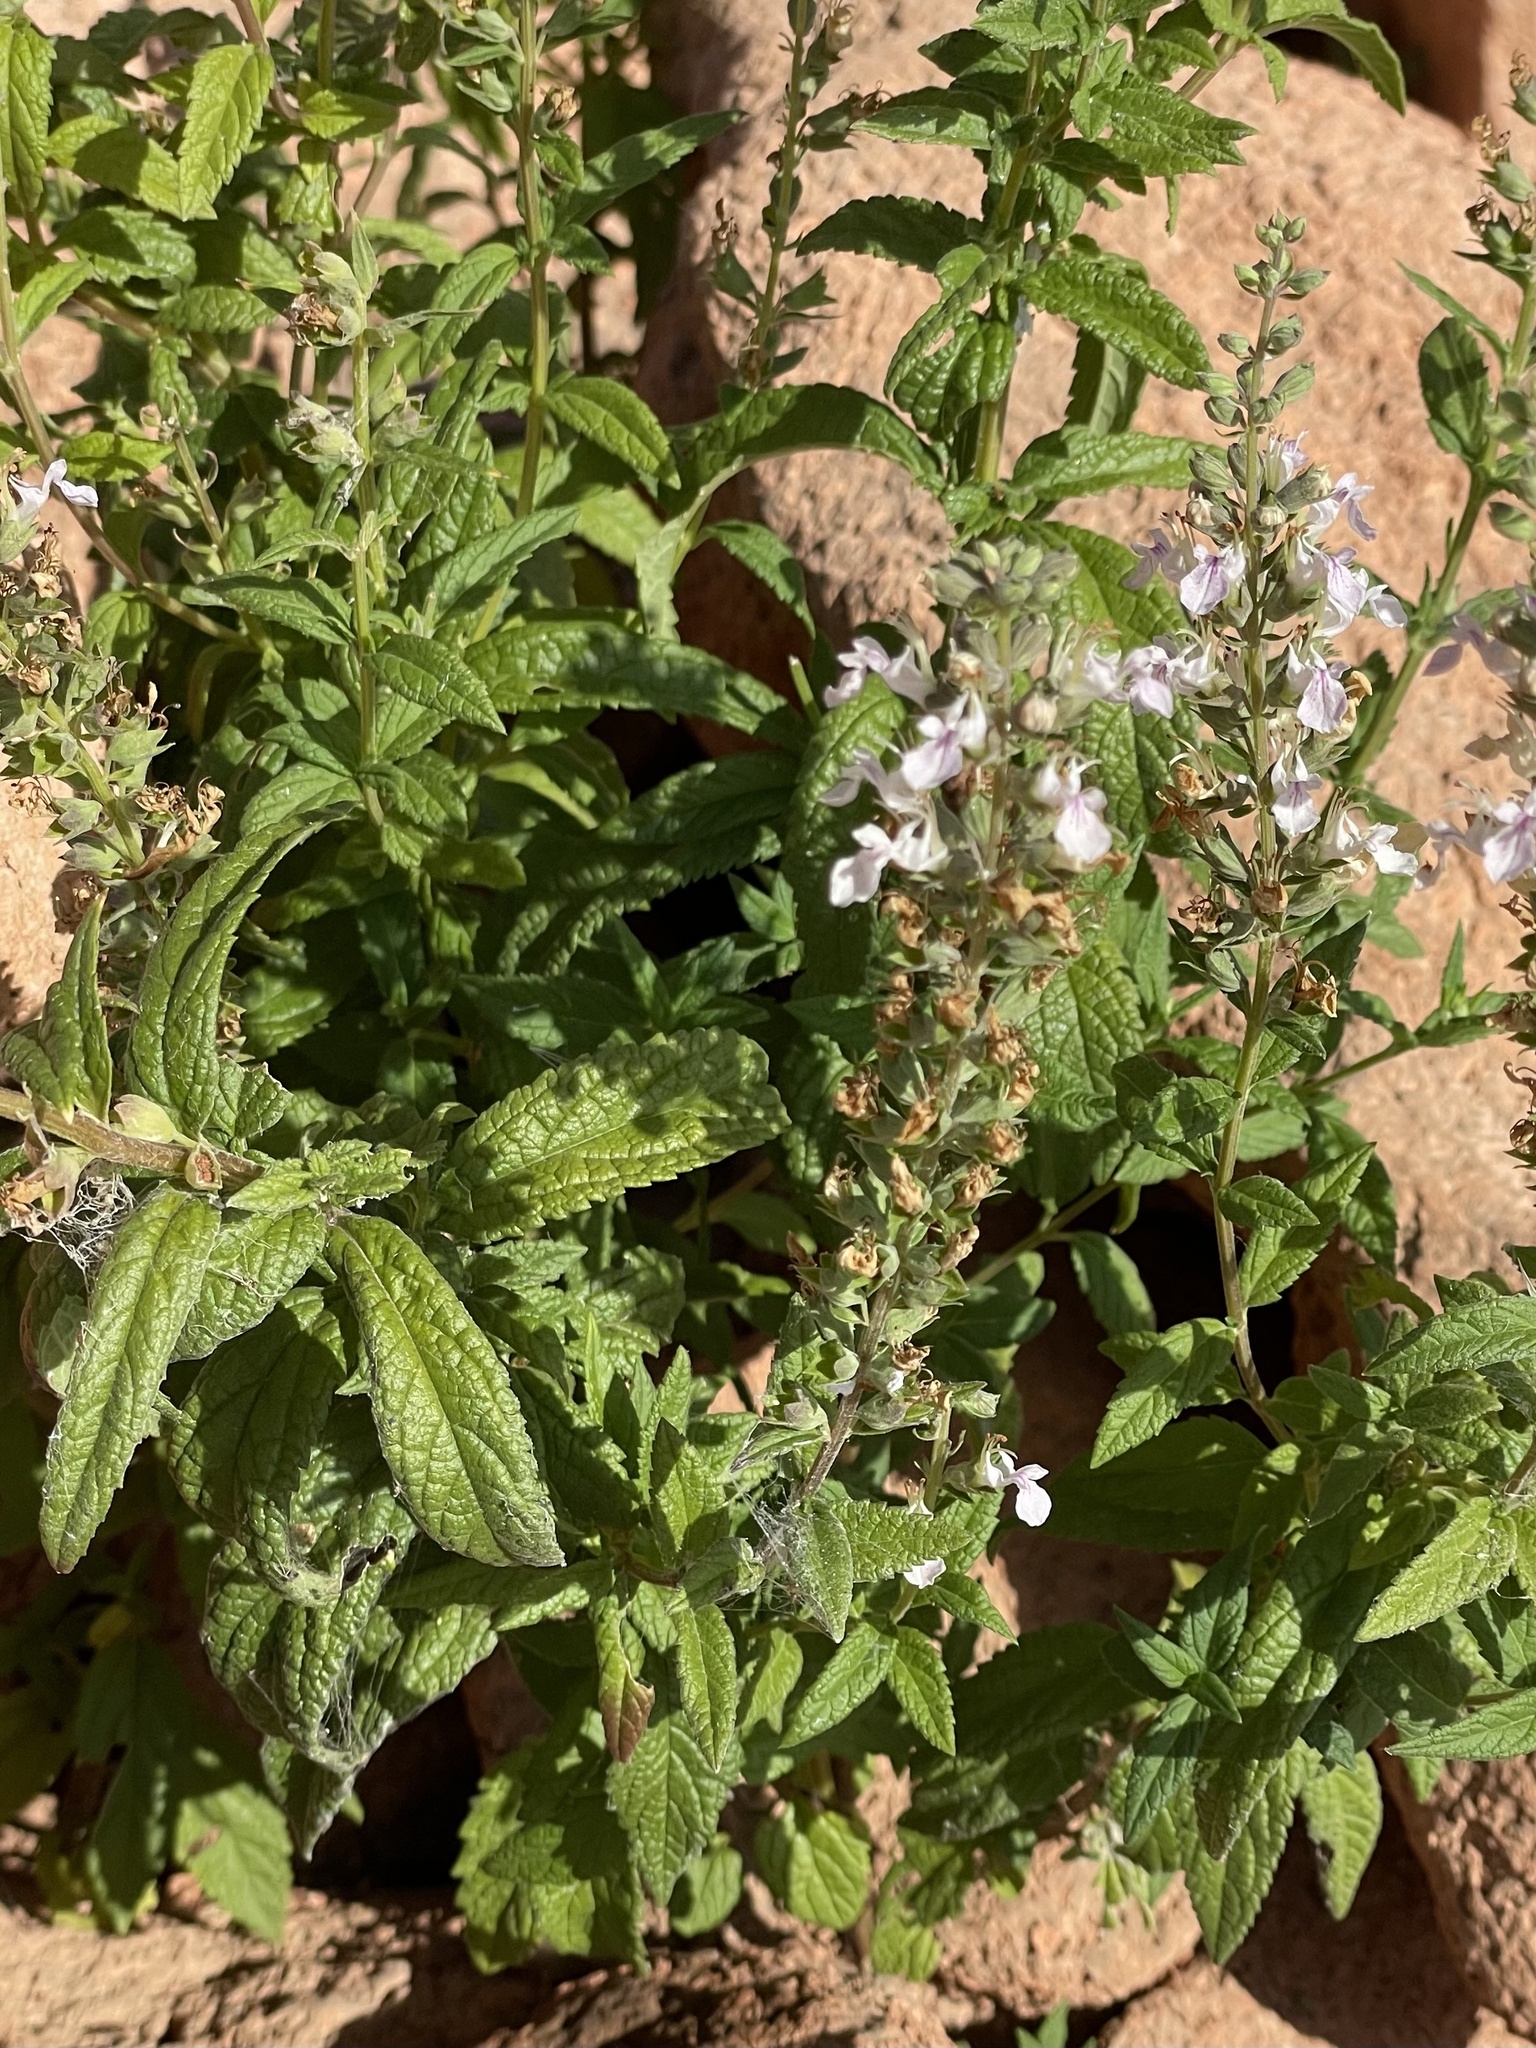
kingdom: Plantae
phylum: Tracheophyta
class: Magnoliopsida
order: Lamiales
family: Lamiaceae
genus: Teucrium
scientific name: Teucrium canadense
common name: American germander
